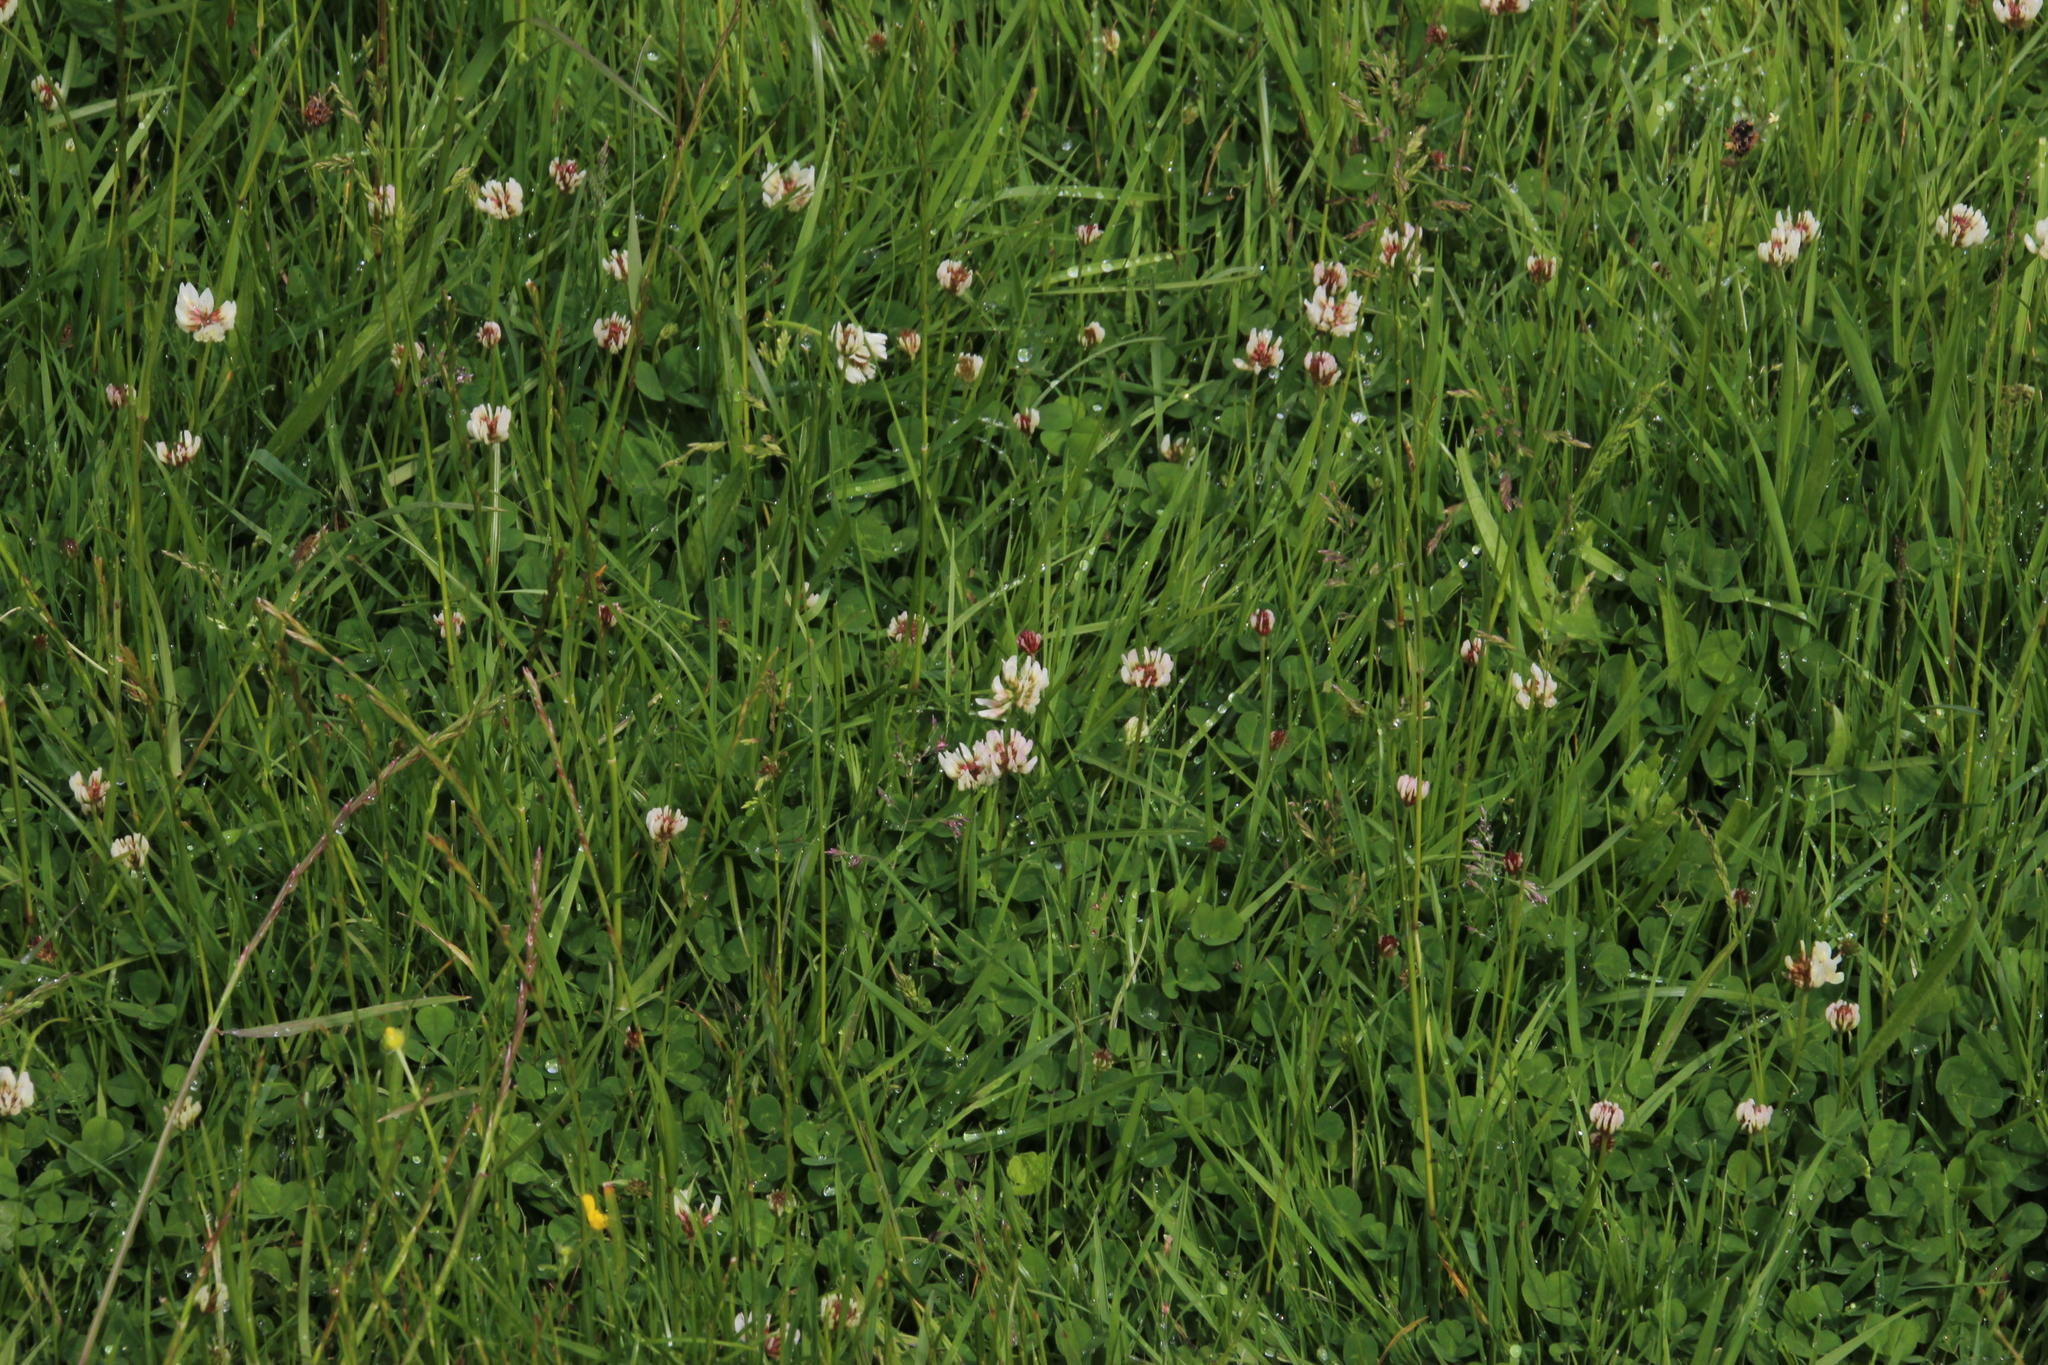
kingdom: Plantae
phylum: Tracheophyta
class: Magnoliopsida
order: Fabales
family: Fabaceae
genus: Trifolium
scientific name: Trifolium repens
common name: White clover
